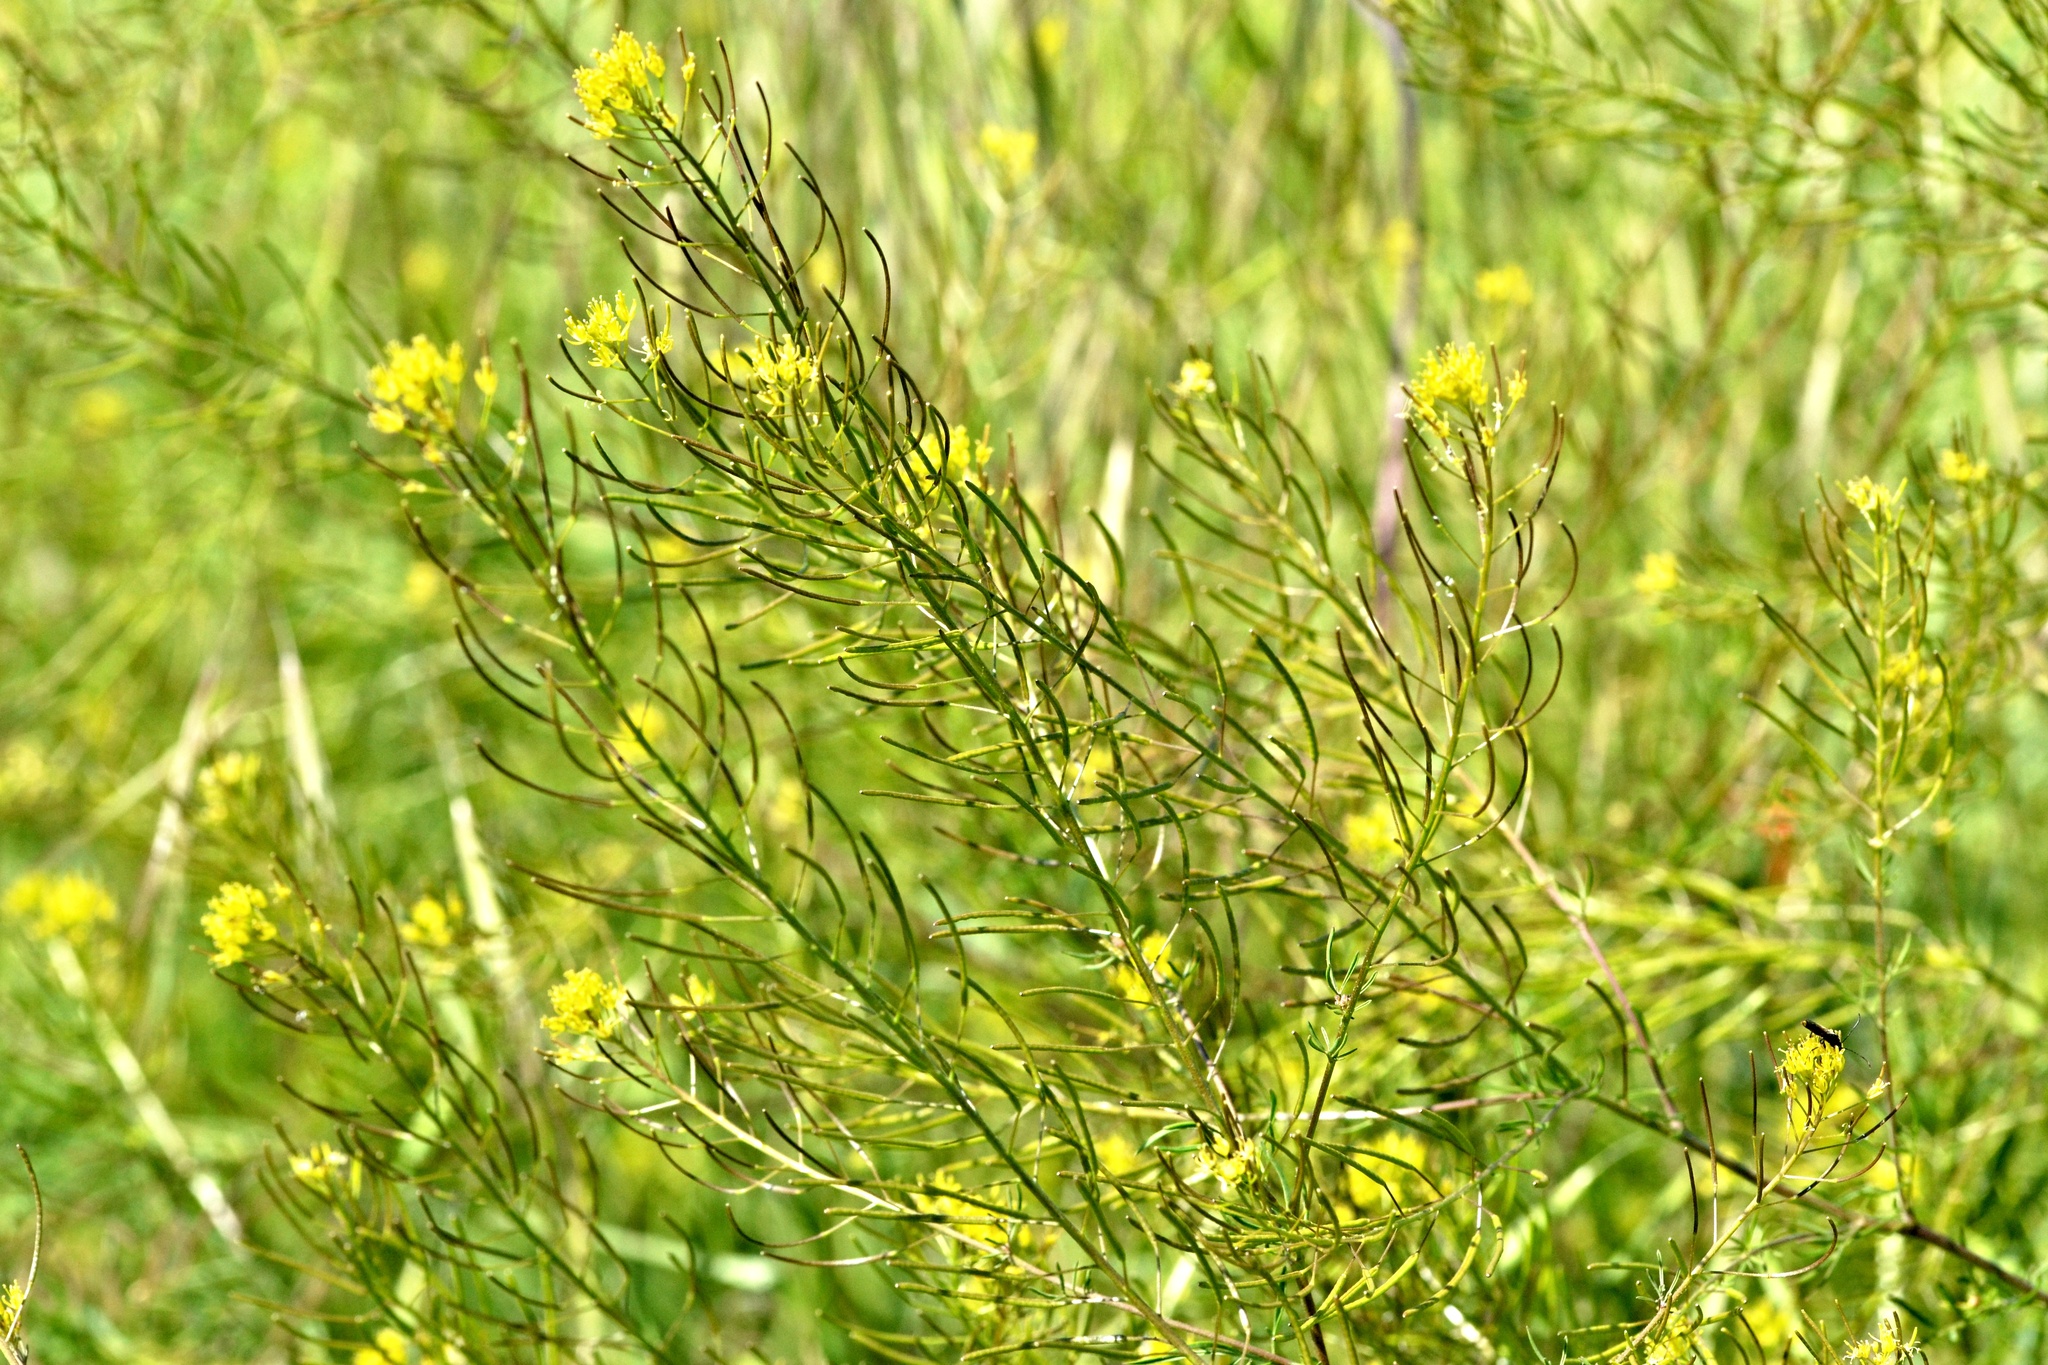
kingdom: Plantae
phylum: Tracheophyta
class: Magnoliopsida
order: Brassicales
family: Brassicaceae
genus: Descurainia
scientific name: Descurainia sophia
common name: Flixweed
